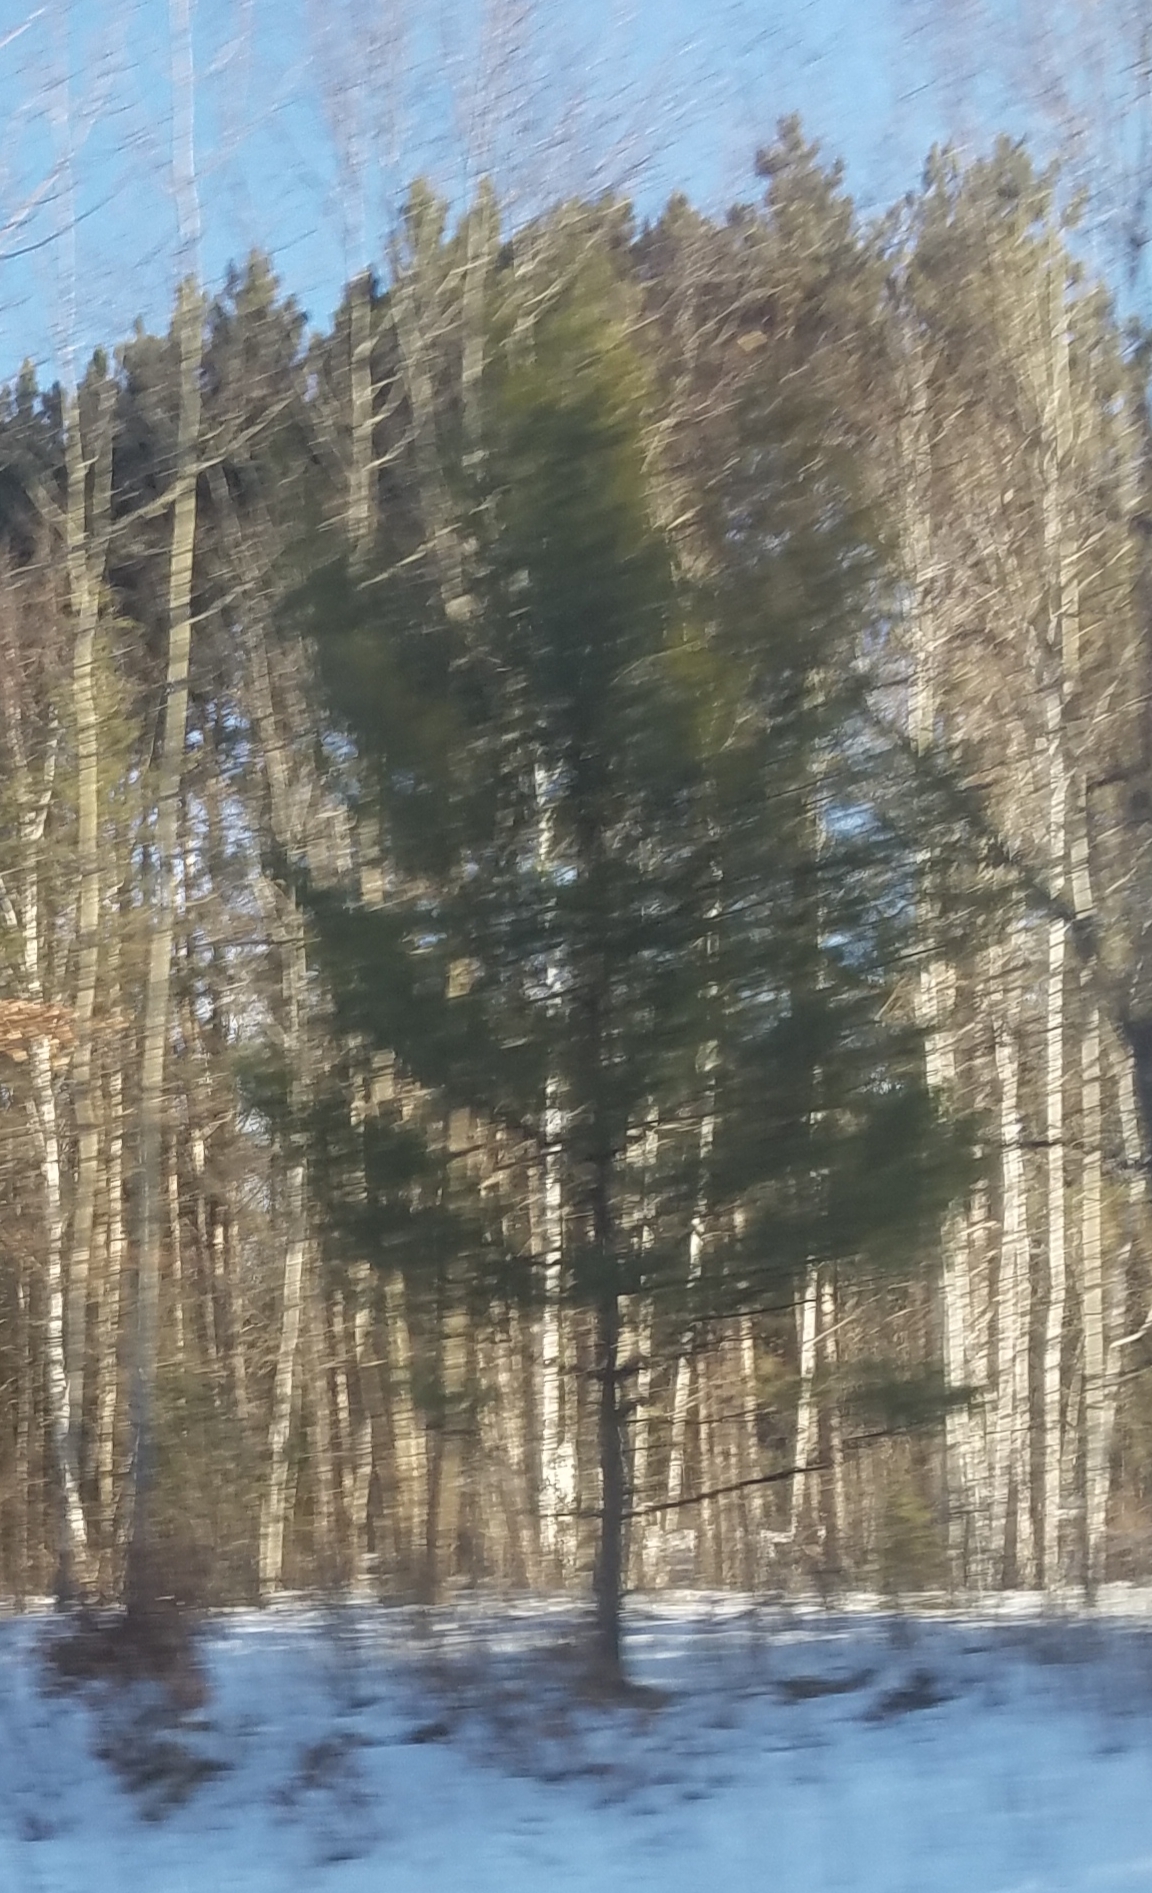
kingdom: Plantae
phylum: Tracheophyta
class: Pinopsida
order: Pinales
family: Pinaceae
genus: Pinus
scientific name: Pinus strobus
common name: Weymouth pine
